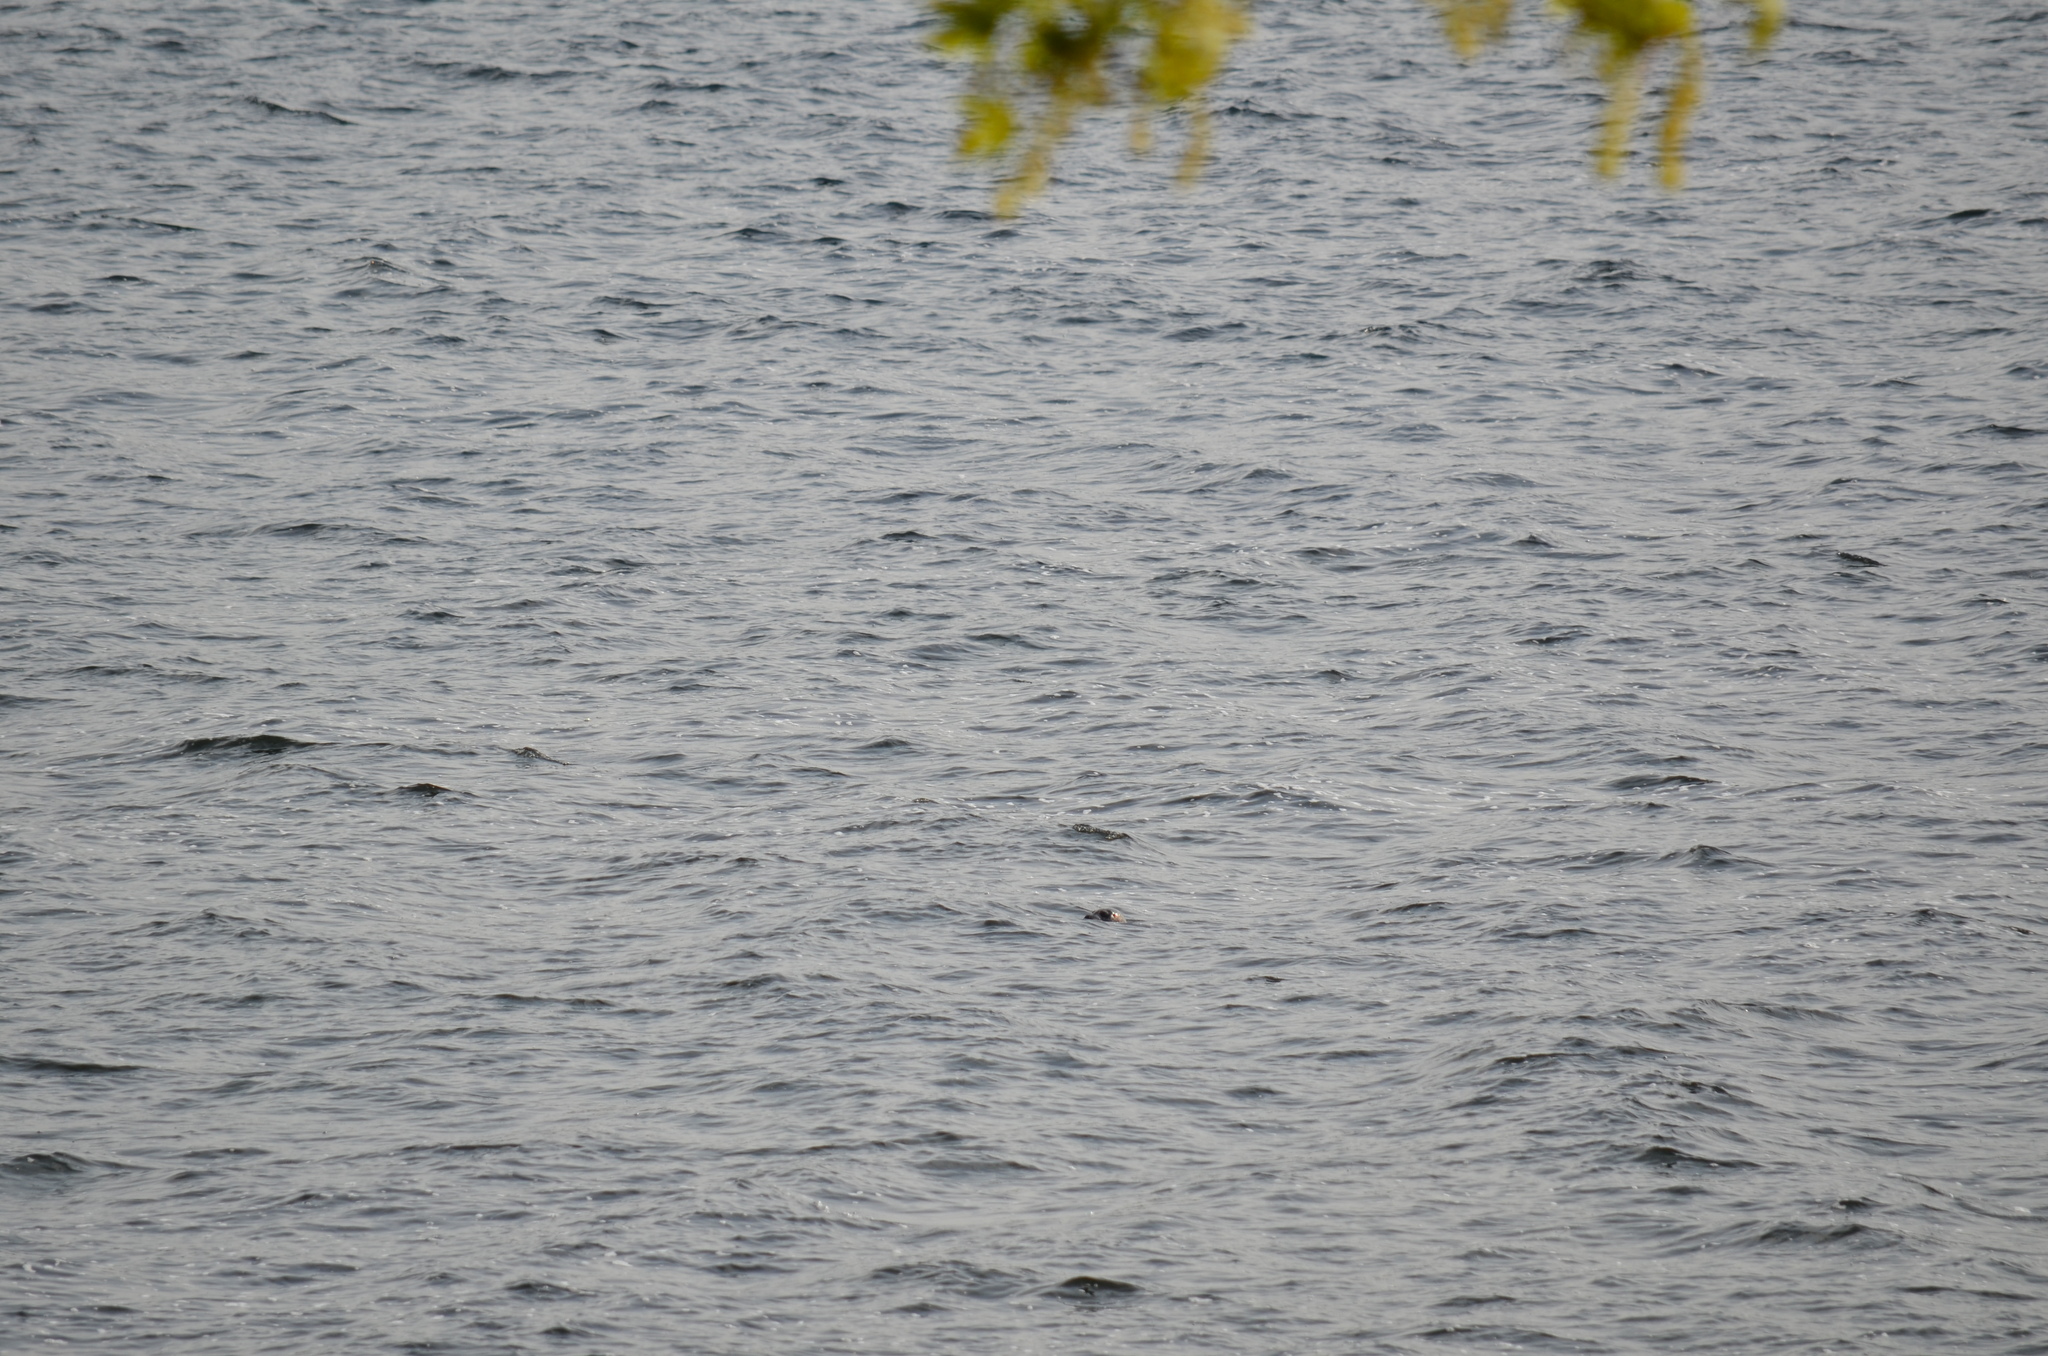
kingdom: Animalia
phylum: Chordata
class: Mammalia
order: Carnivora
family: Phocidae
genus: Phoca
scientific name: Phoca vitulina
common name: Harbor seal
